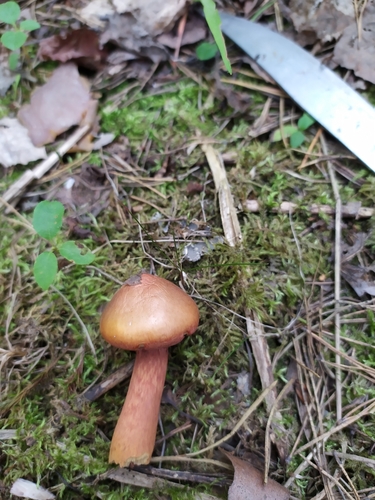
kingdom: Fungi
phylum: Basidiomycota
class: Agaricomycetes
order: Boletales
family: Gomphidiaceae
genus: Chroogomphus
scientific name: Chroogomphus rutilus
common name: Copper spike
